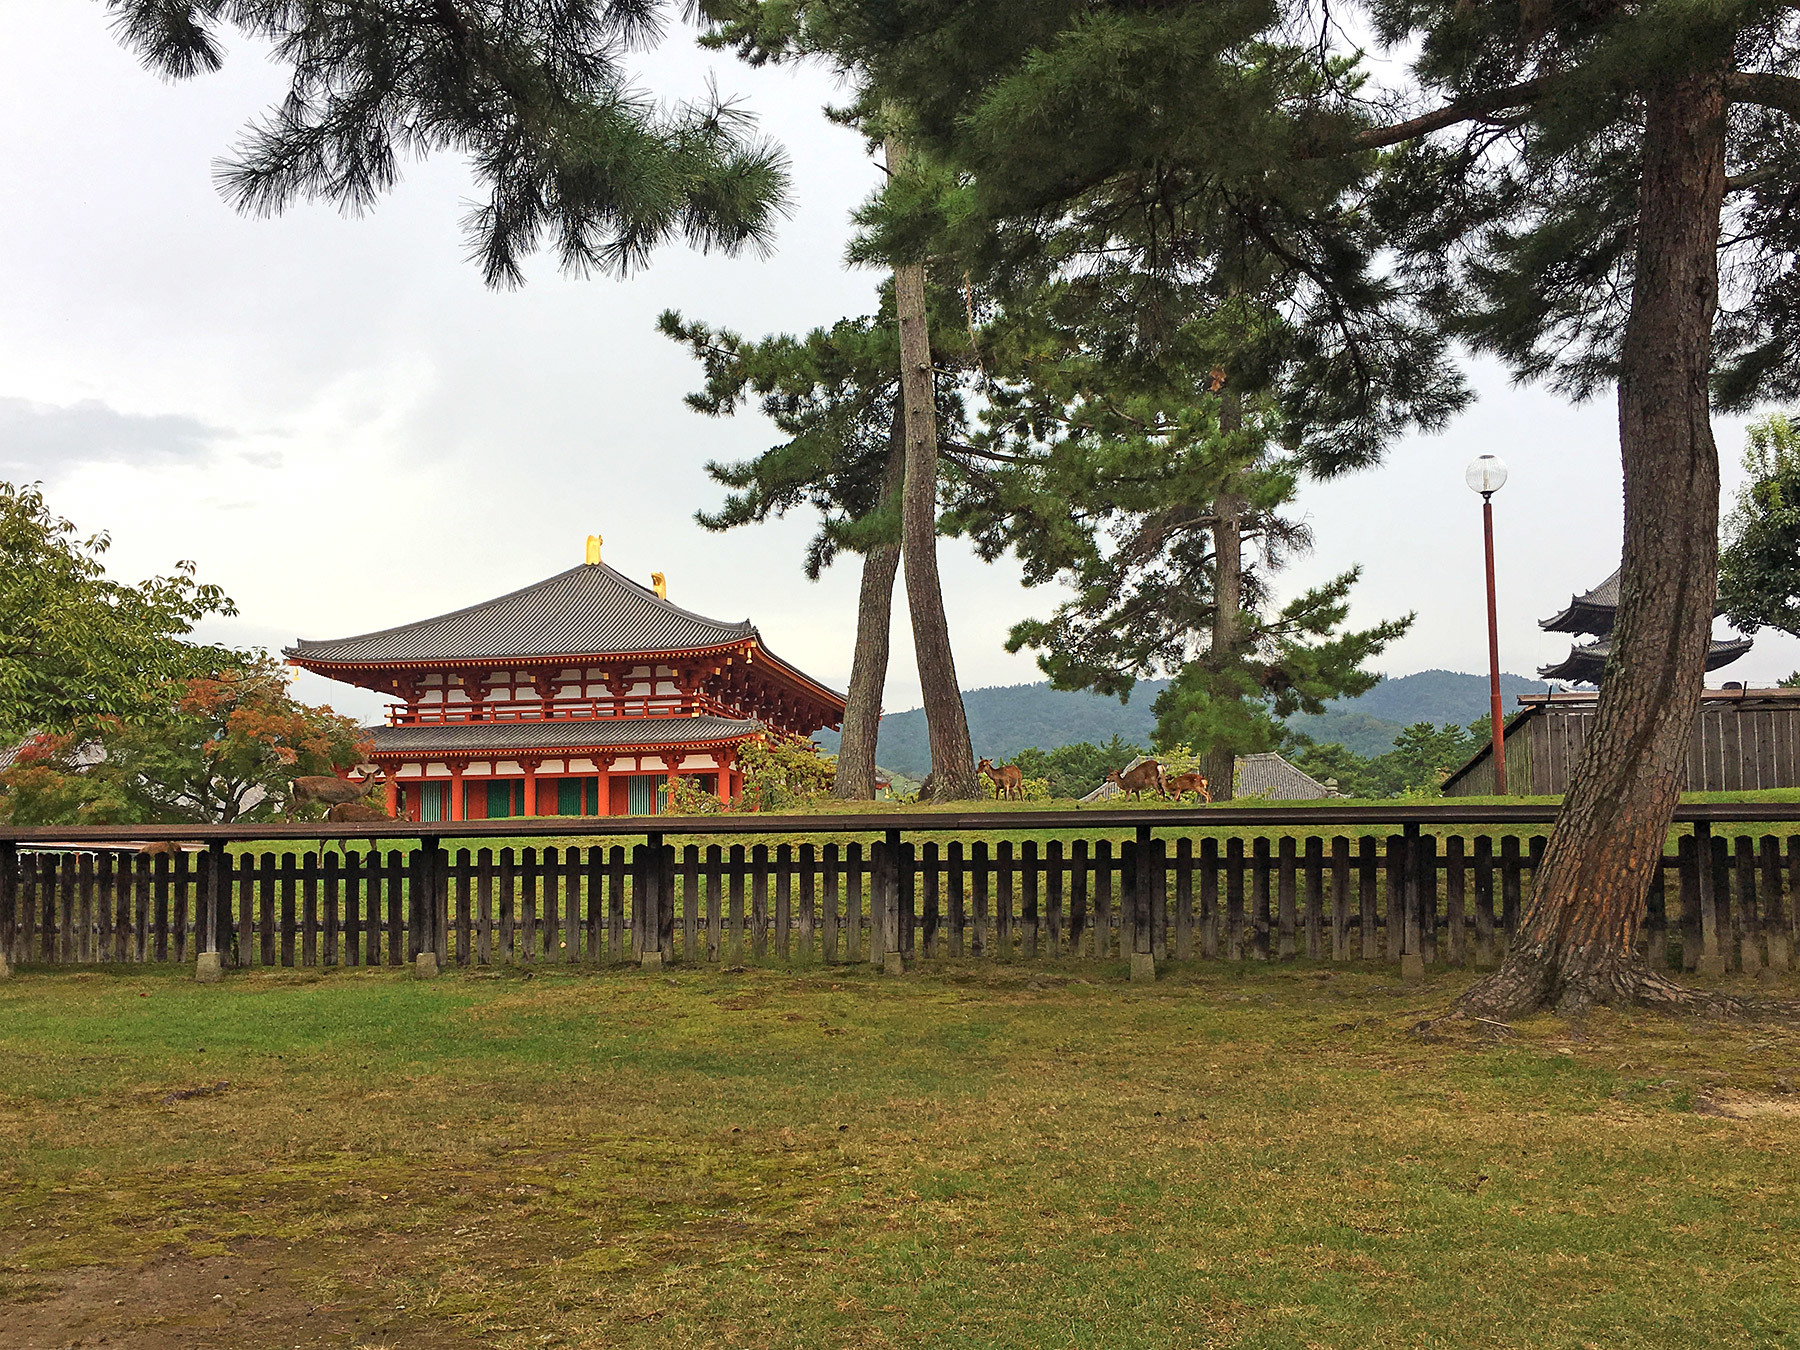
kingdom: Animalia
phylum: Chordata
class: Mammalia
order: Artiodactyla
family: Cervidae
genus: Cervus
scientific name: Cervus nippon
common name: Sika deer
